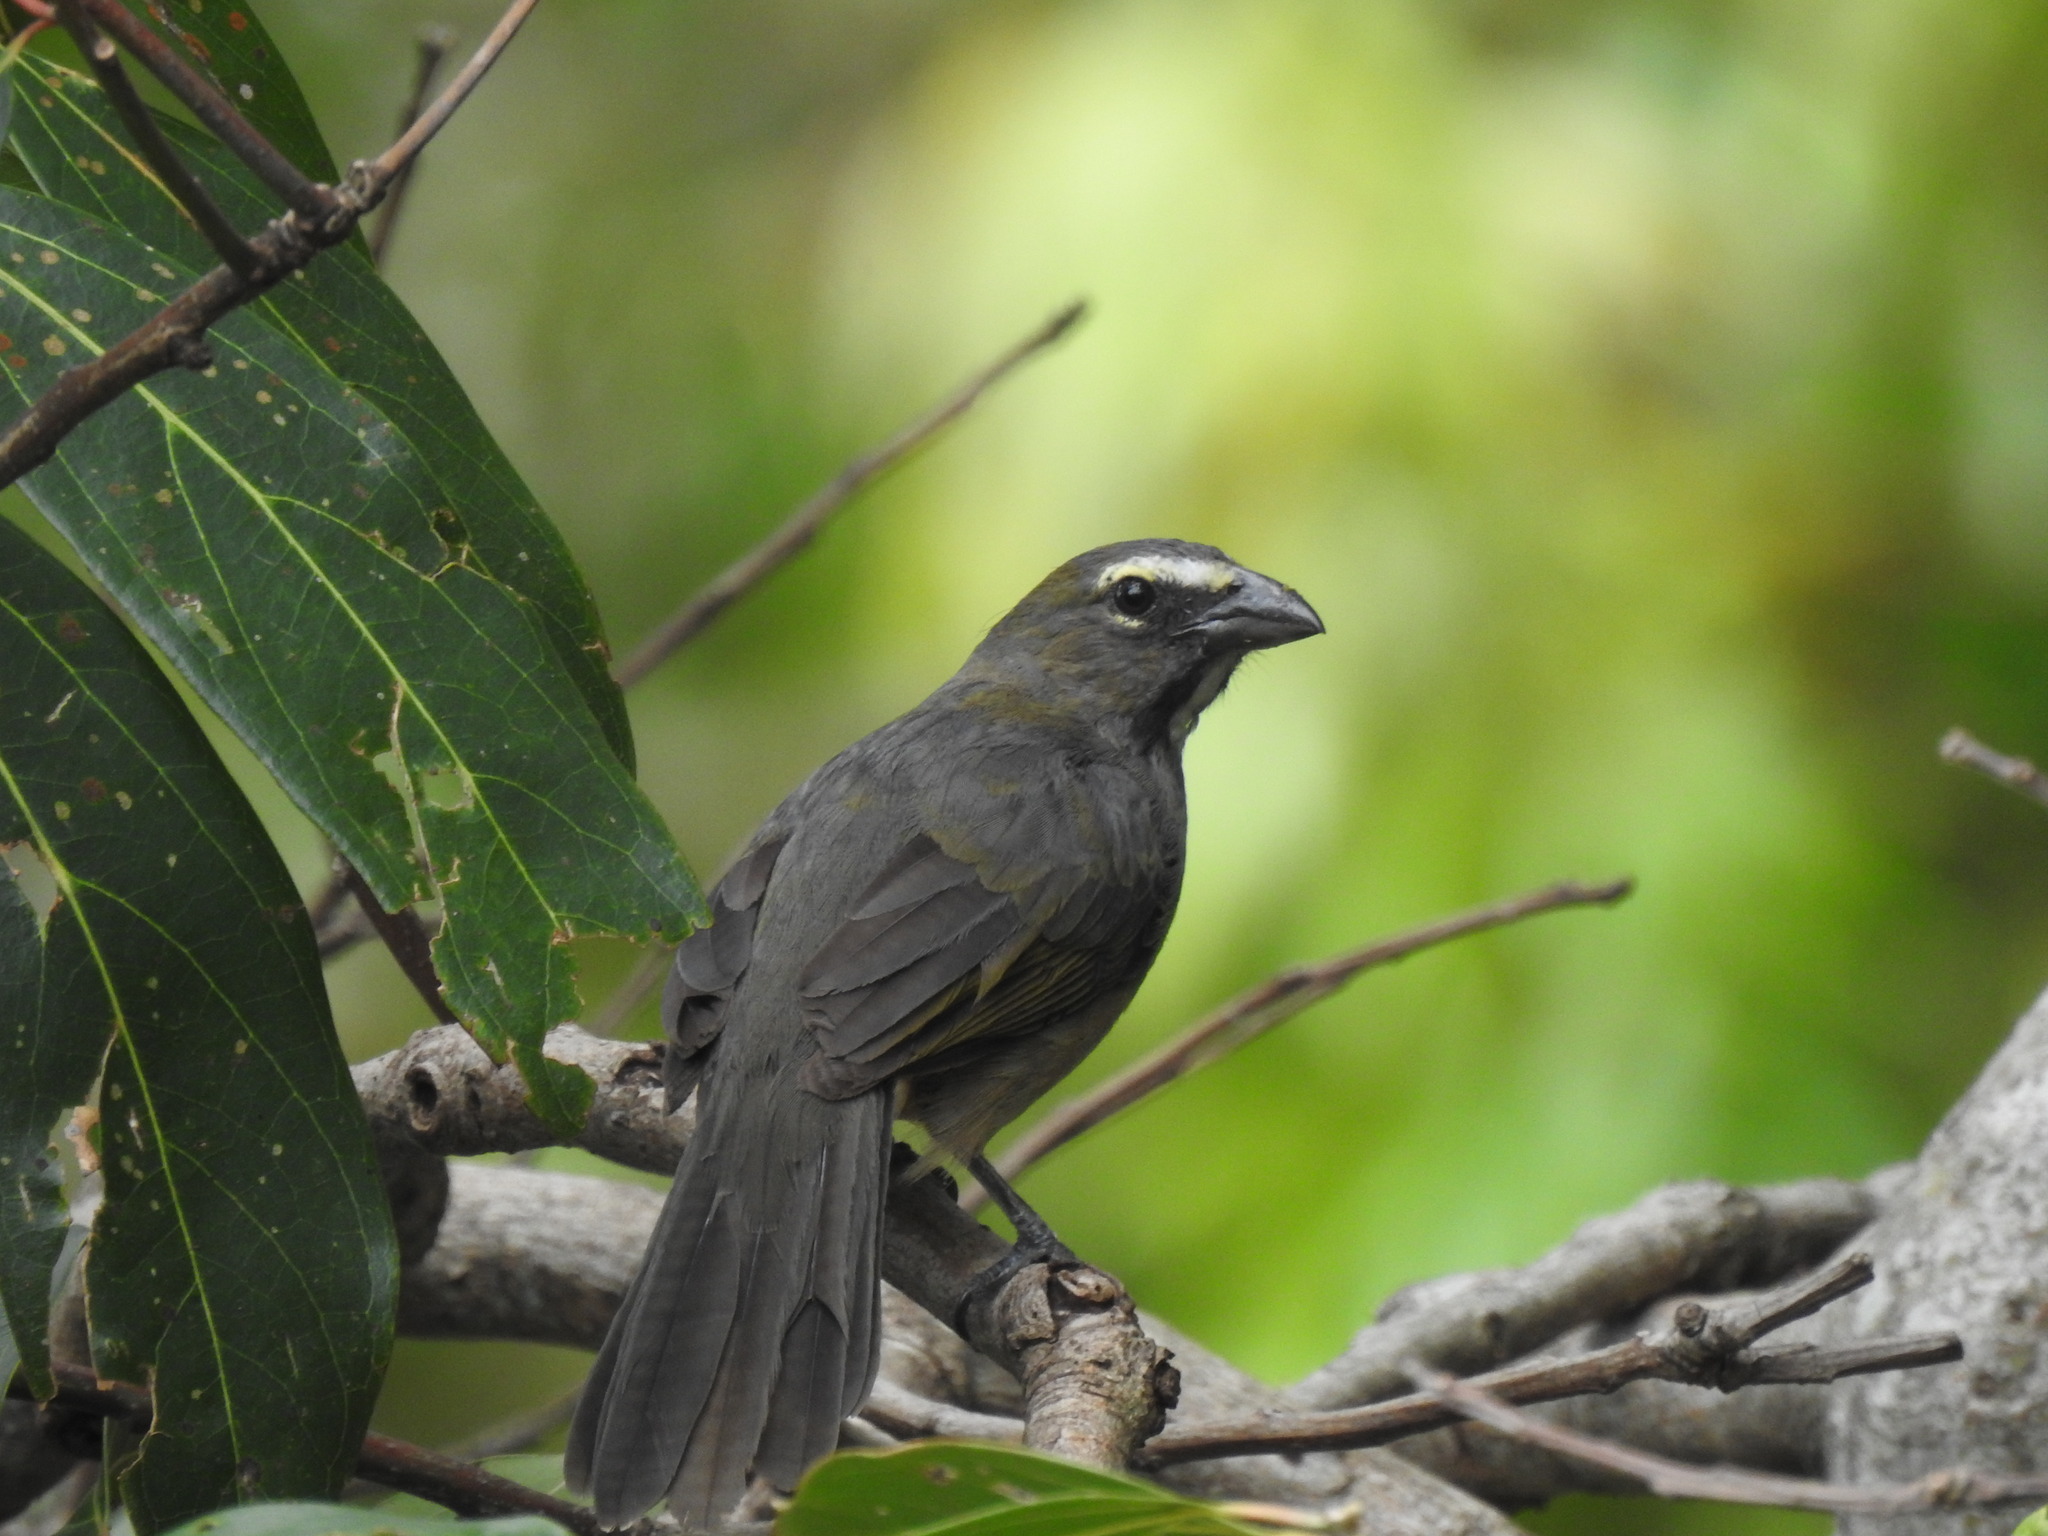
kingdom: Animalia
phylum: Chordata
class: Aves
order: Passeriformes
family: Thraupidae
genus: Saltator
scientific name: Saltator grandis
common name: Cinnamon-bellied saltator
